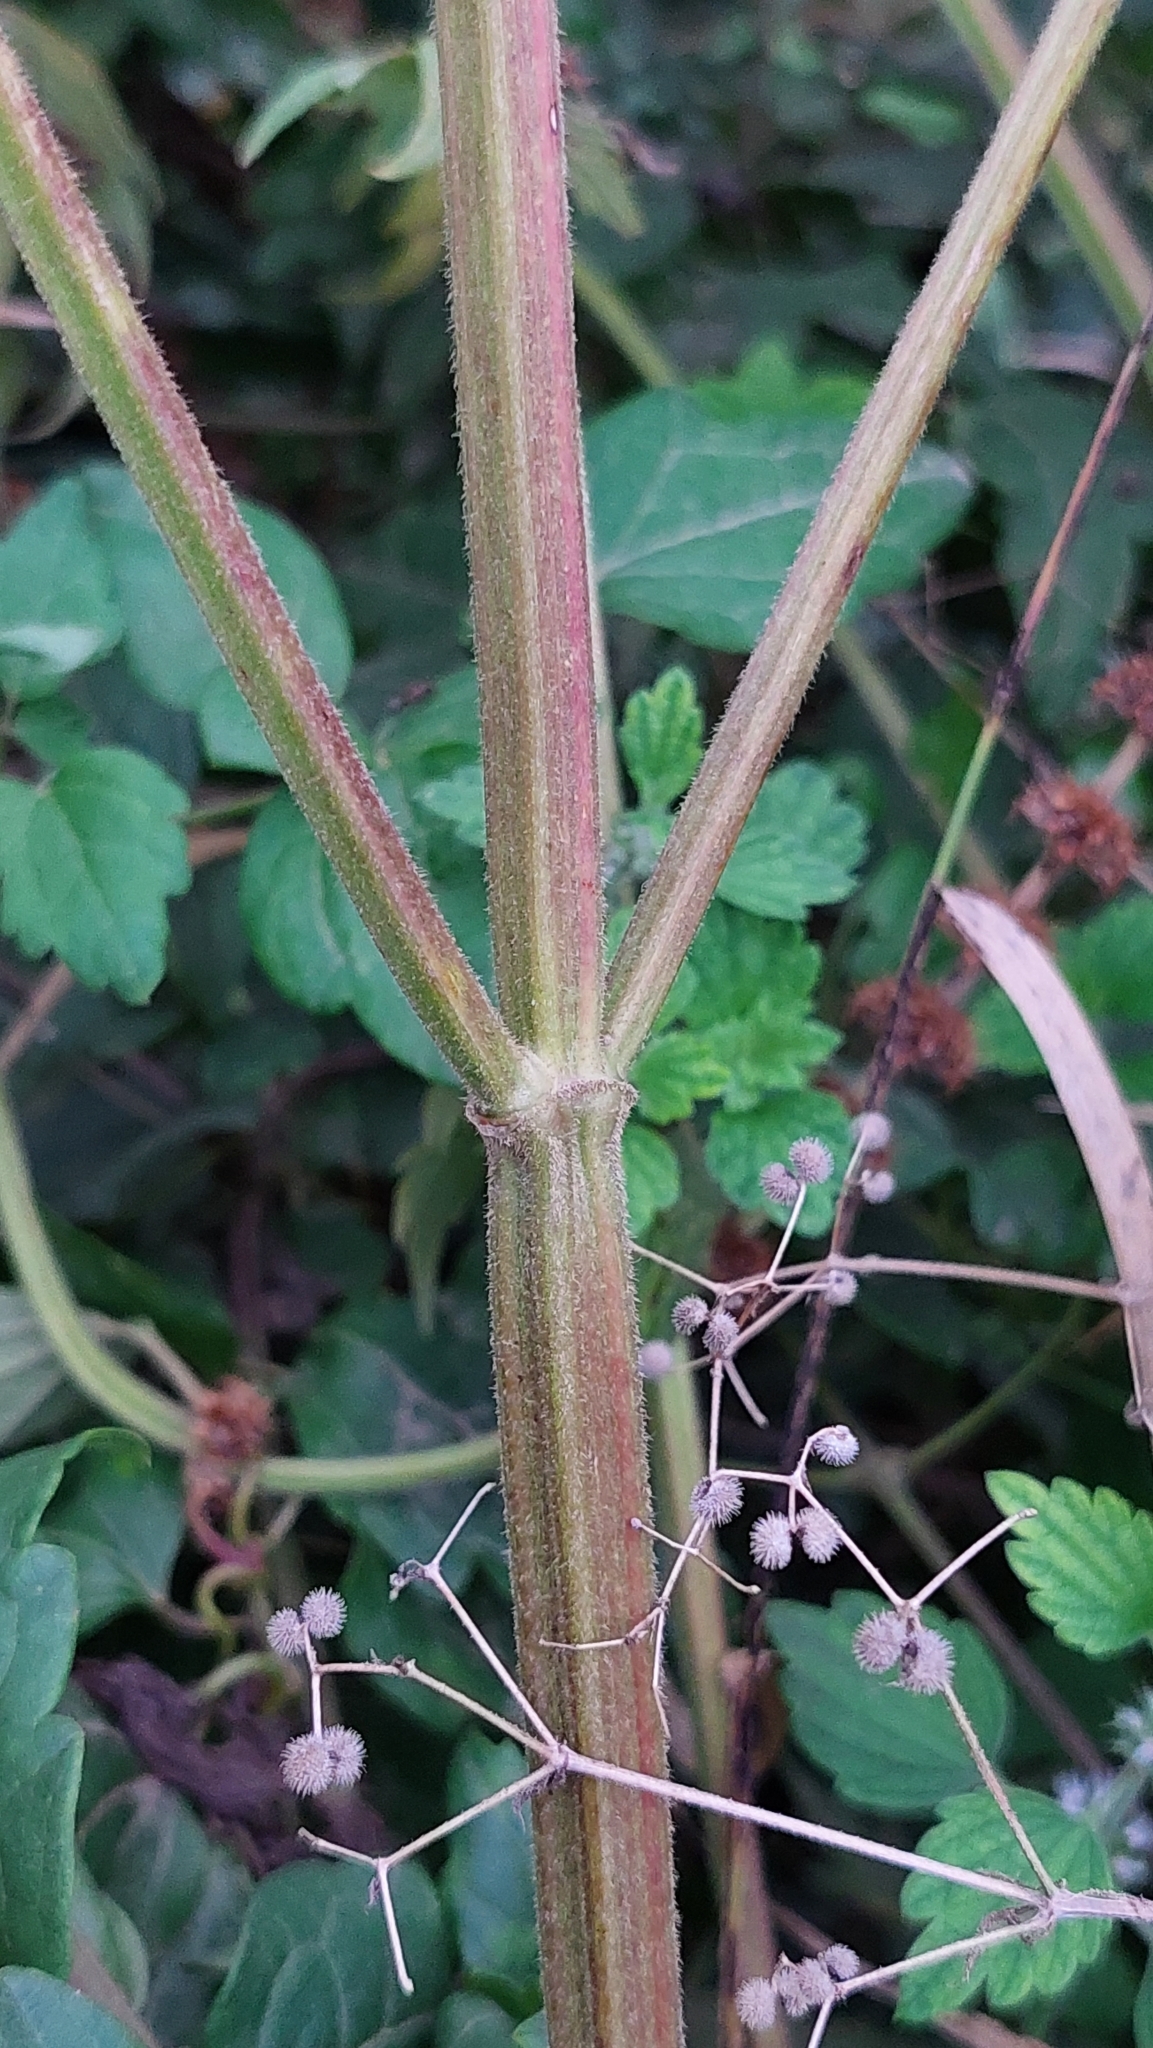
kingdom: Plantae
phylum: Tracheophyta
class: Magnoliopsida
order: Lamiales
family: Lamiaceae
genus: Leonurus
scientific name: Leonurus quinquelobatus
